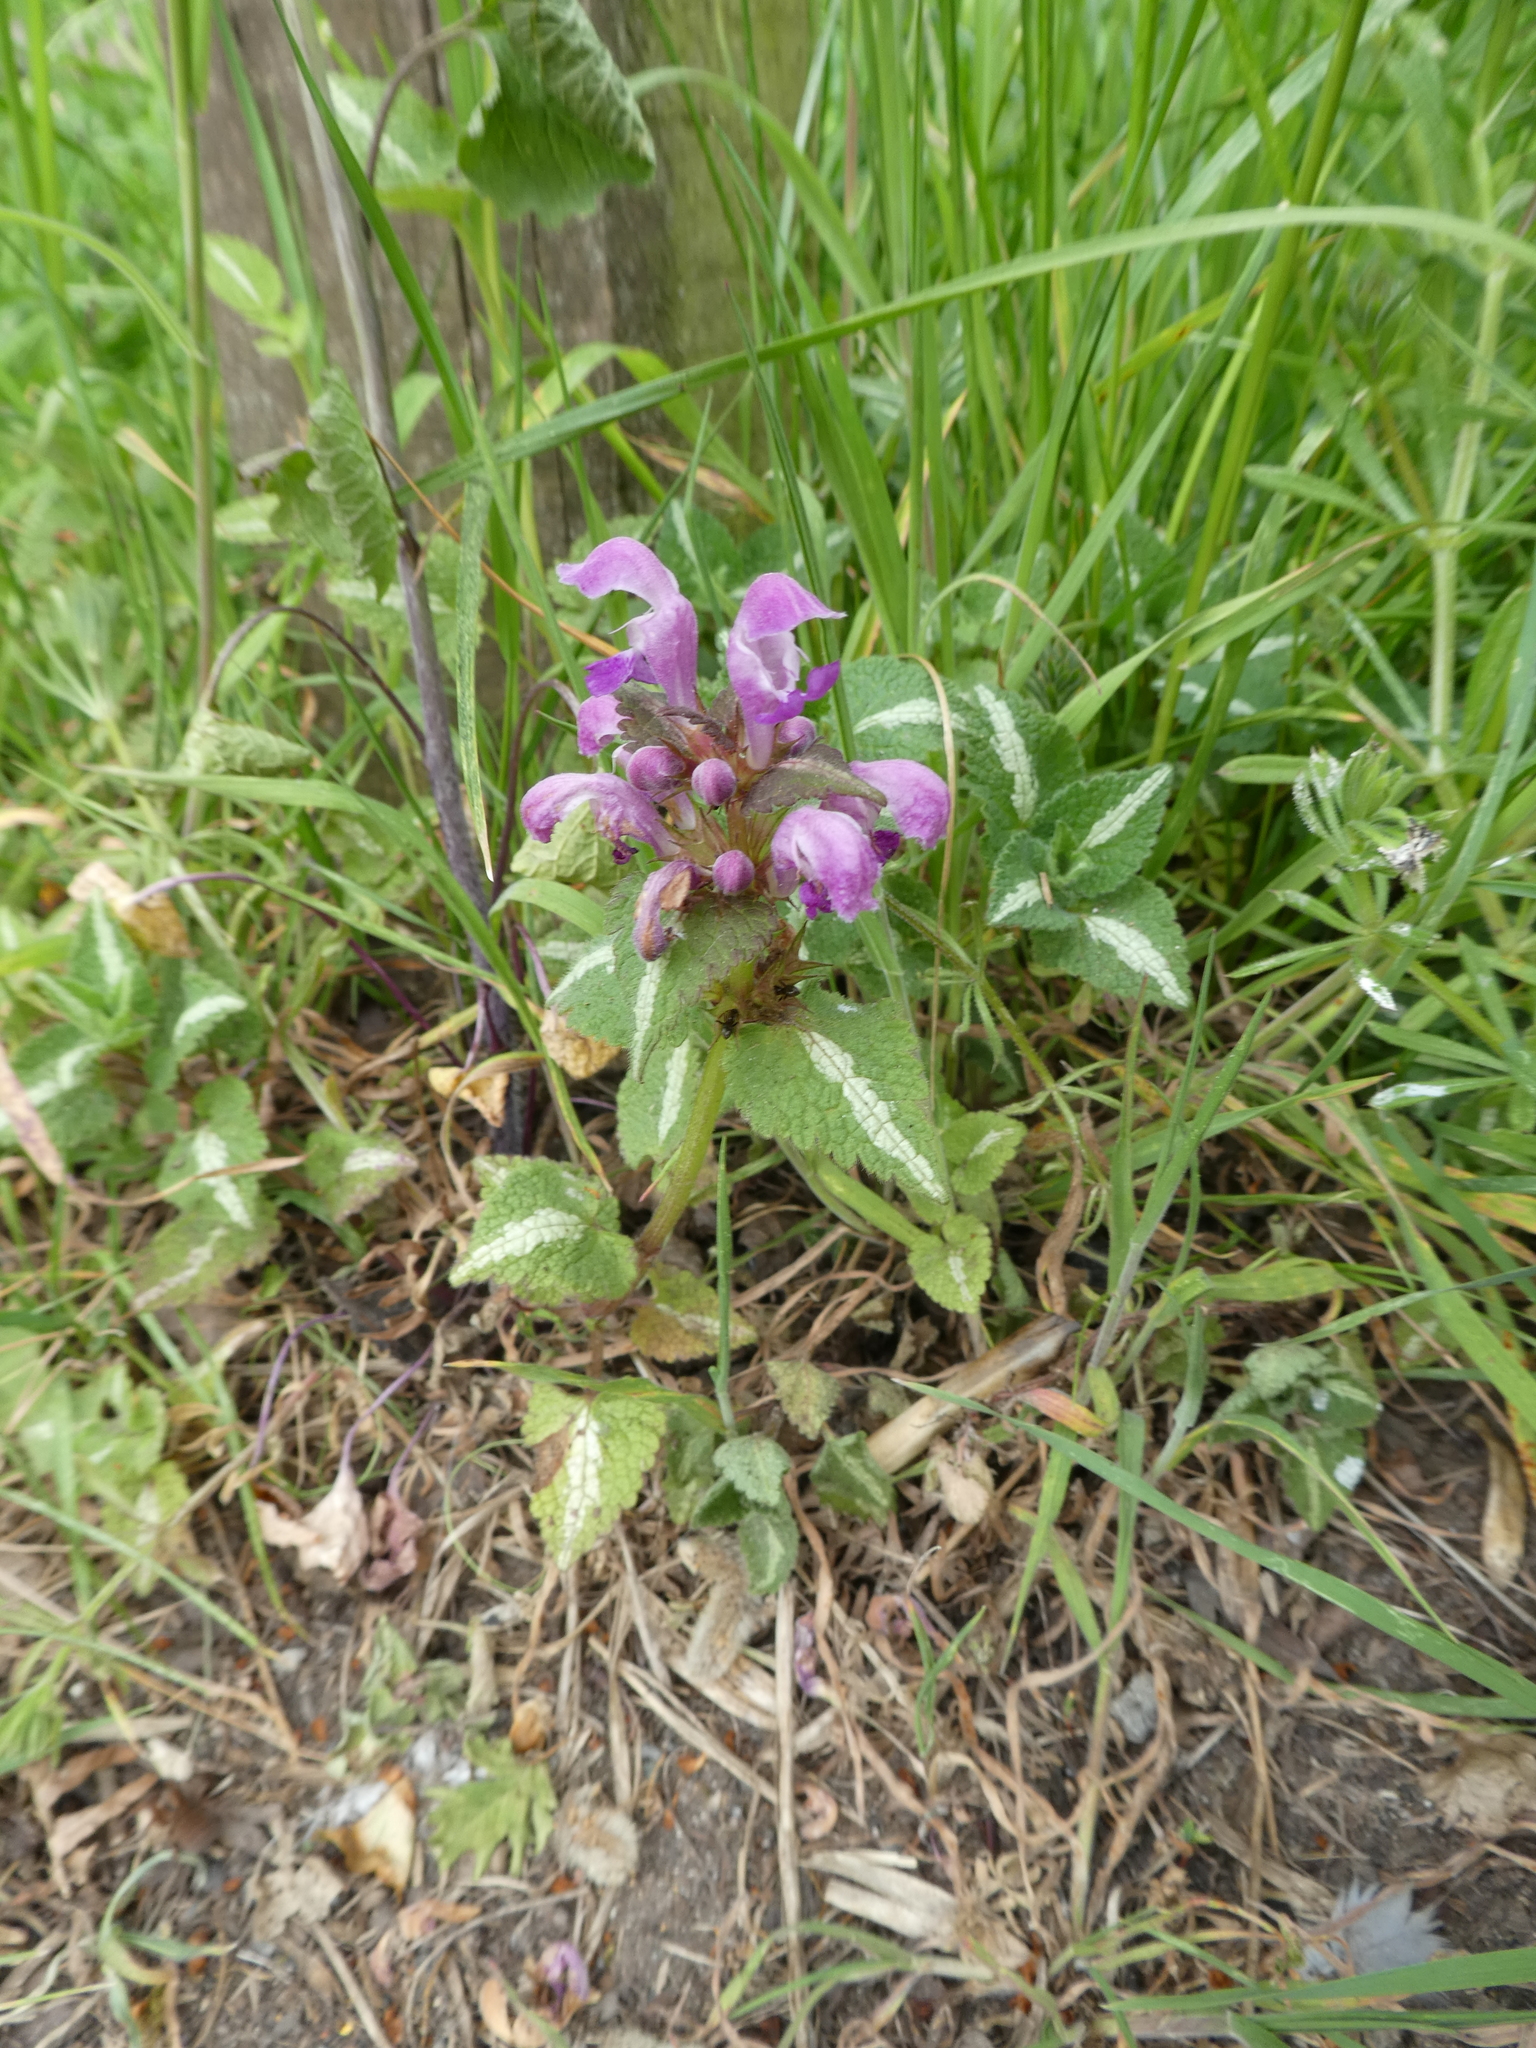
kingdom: Plantae
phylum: Tracheophyta
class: Magnoliopsida
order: Lamiales
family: Lamiaceae
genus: Lamium
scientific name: Lamium maculatum
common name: Spotted dead-nettle
